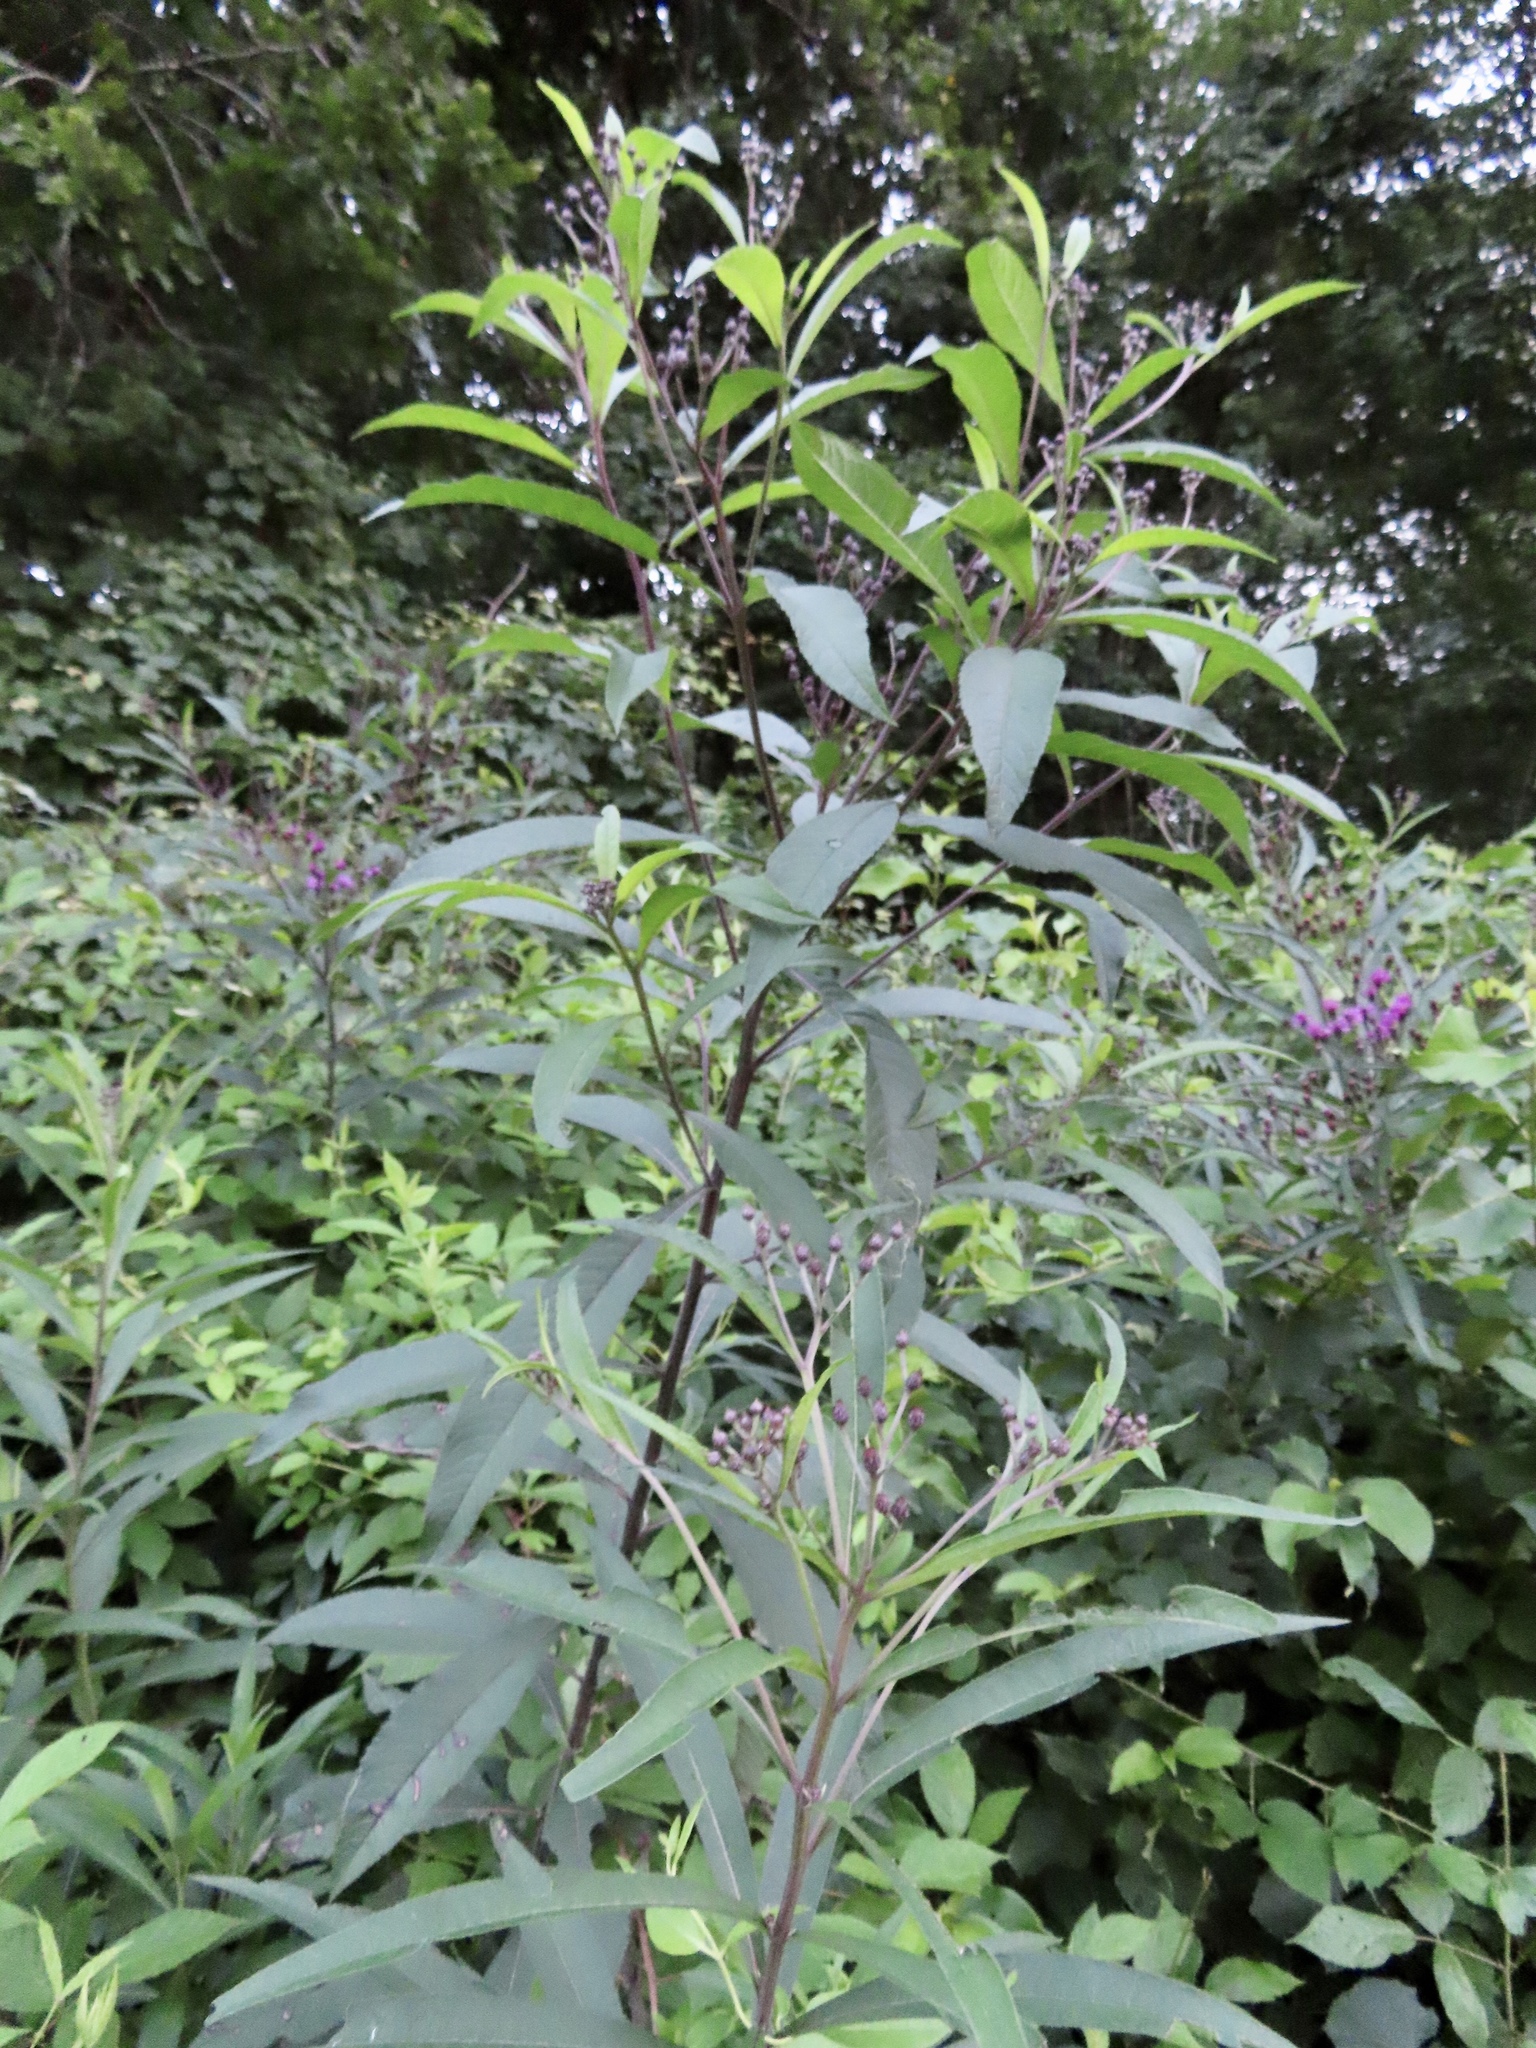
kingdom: Plantae
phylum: Tracheophyta
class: Magnoliopsida
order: Asterales
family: Asteraceae
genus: Vernonia
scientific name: Vernonia noveboracensis
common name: New york ironweed
